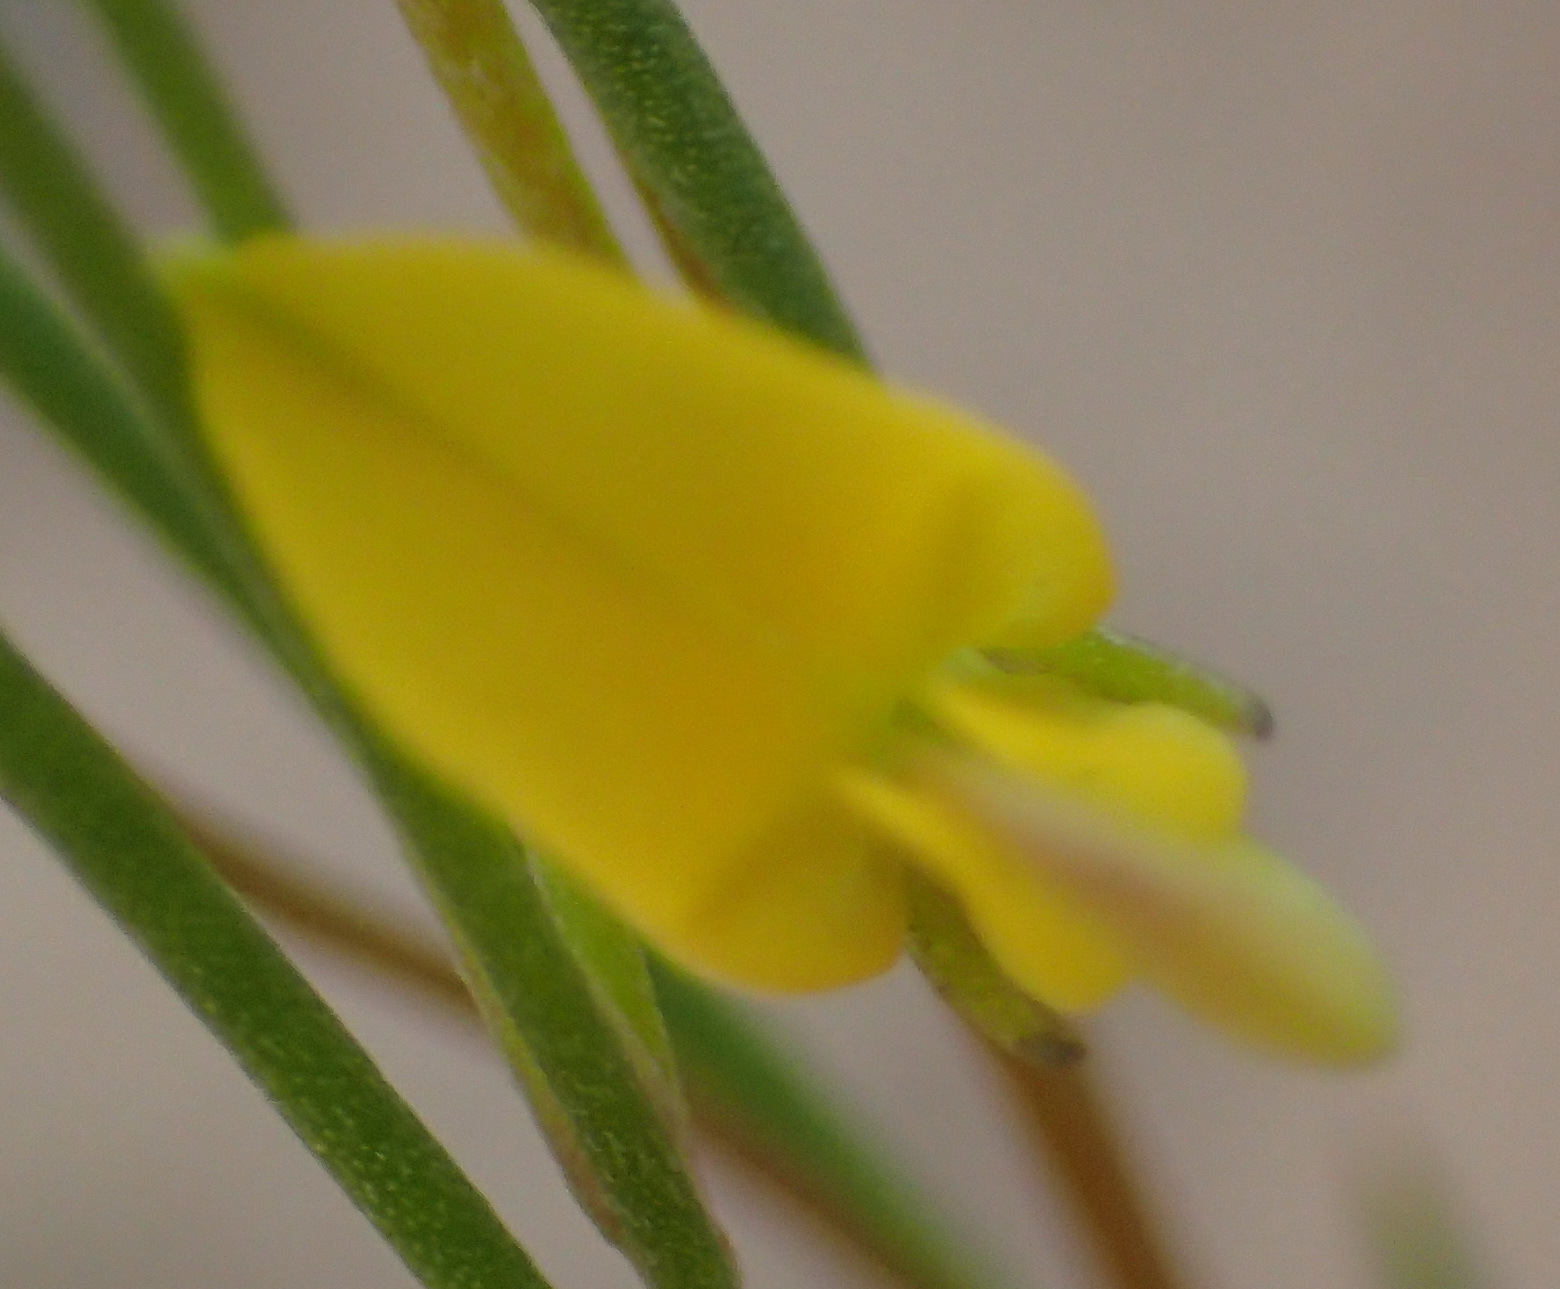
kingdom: Plantae
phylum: Tracheophyta
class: Magnoliopsida
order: Fabales
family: Fabaceae
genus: Aspalathus
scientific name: Aspalathus linearis
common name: Rooibos-tea
